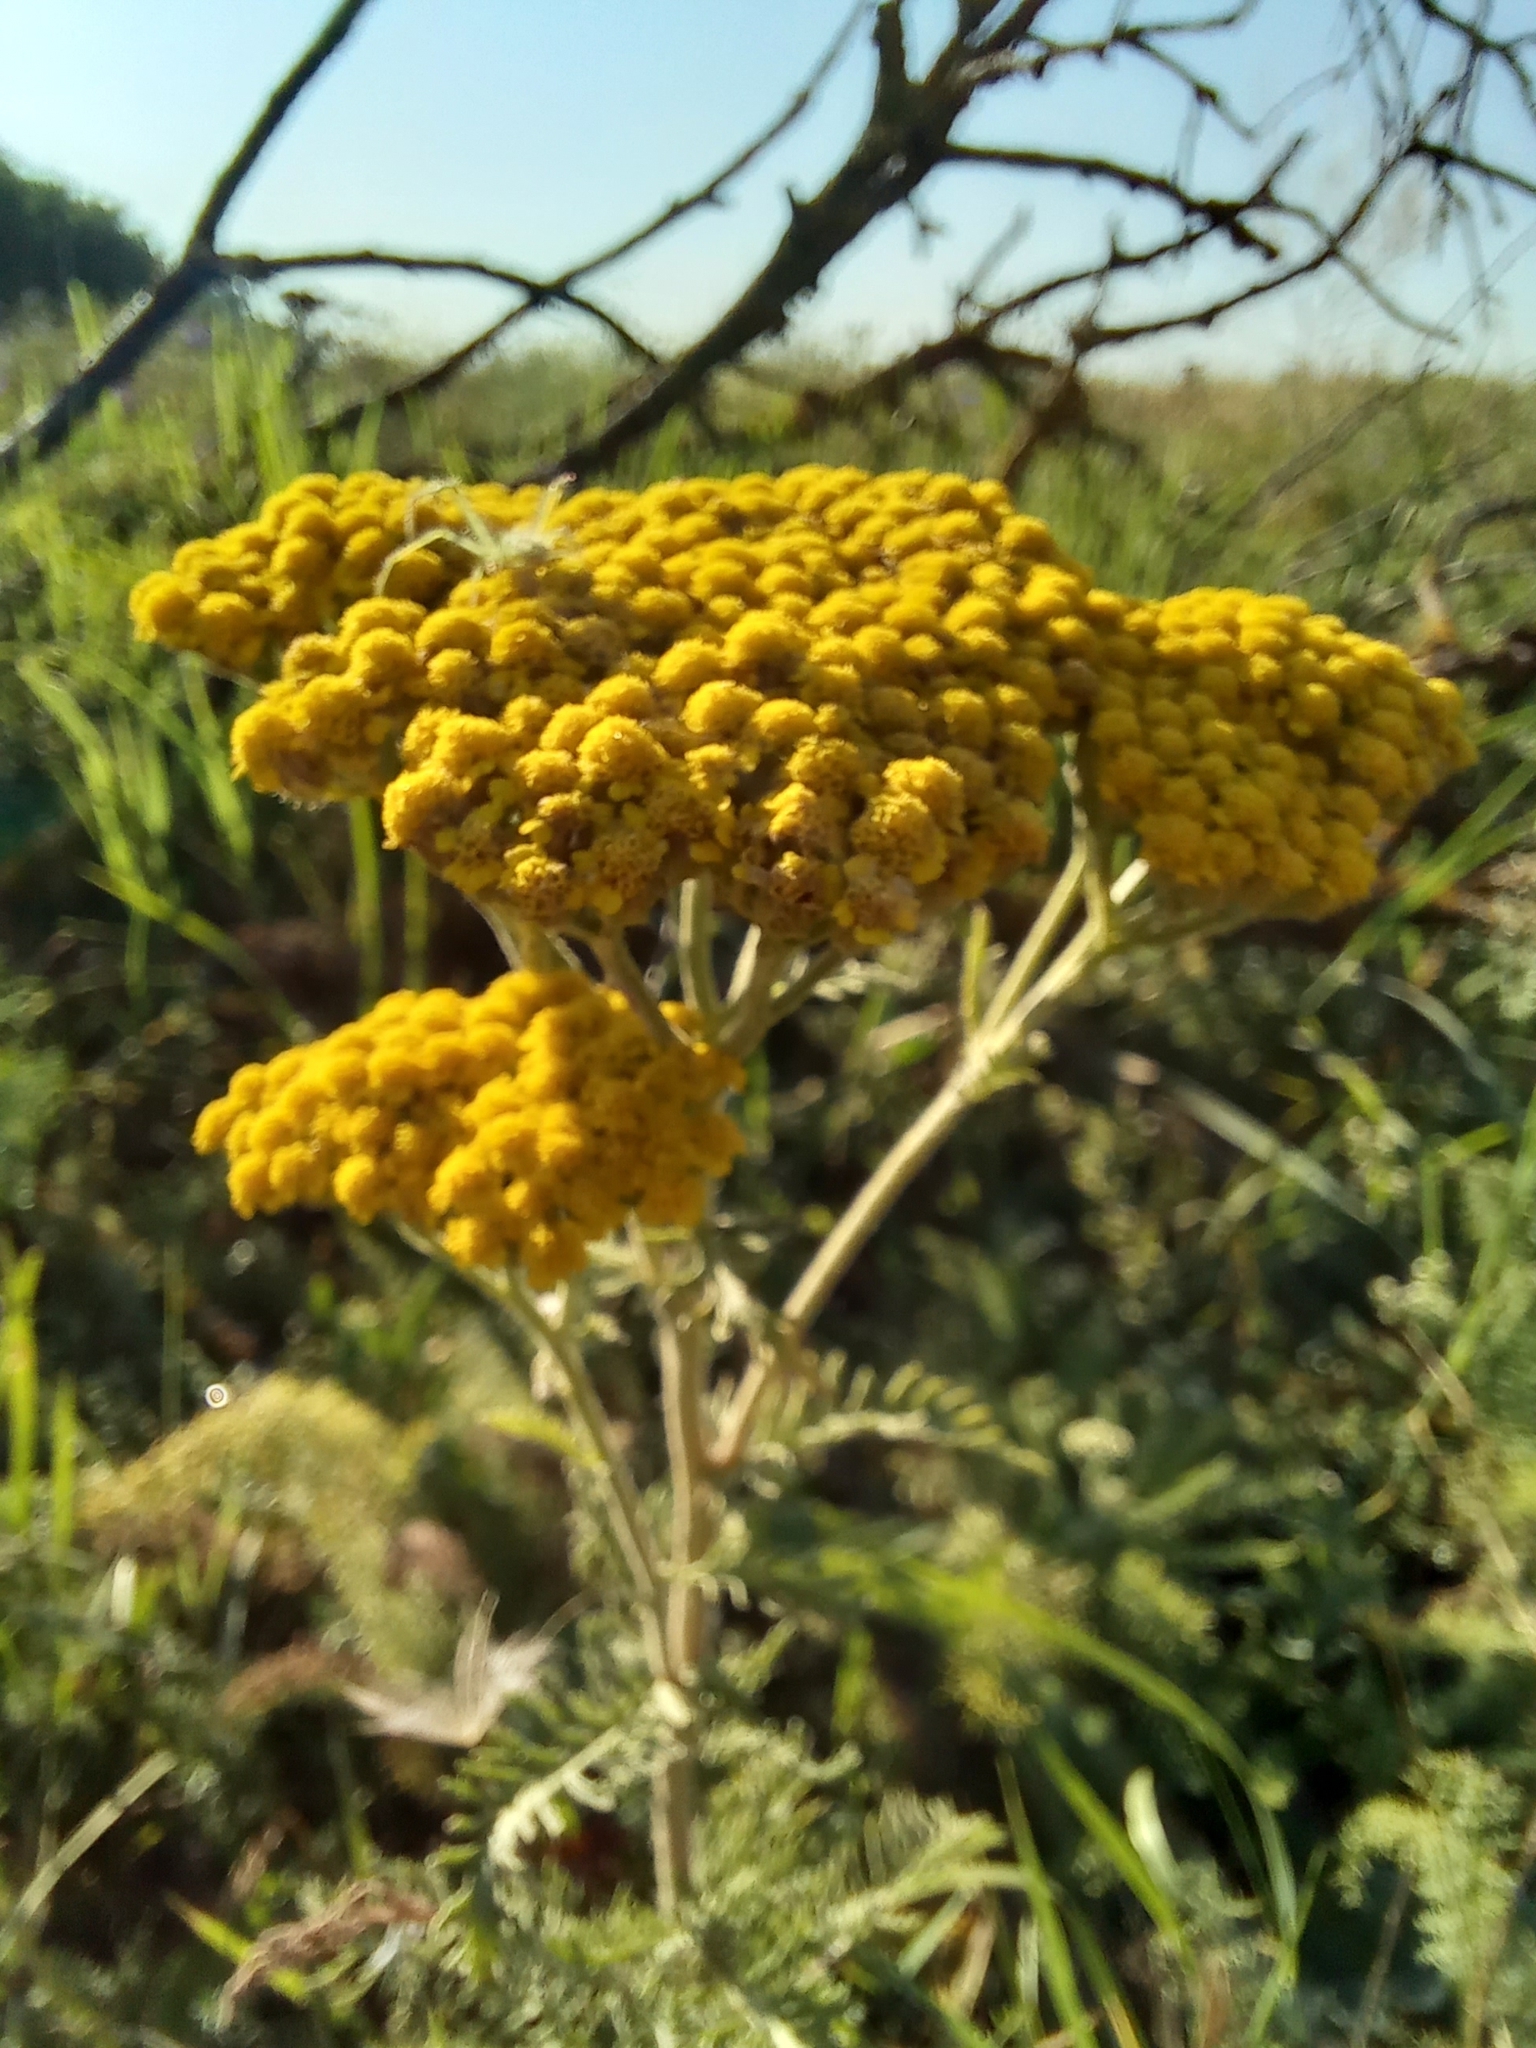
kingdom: Plantae
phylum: Tracheophyta
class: Magnoliopsida
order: Asterales
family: Asteraceae
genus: Achillea
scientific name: Achillea arabica
